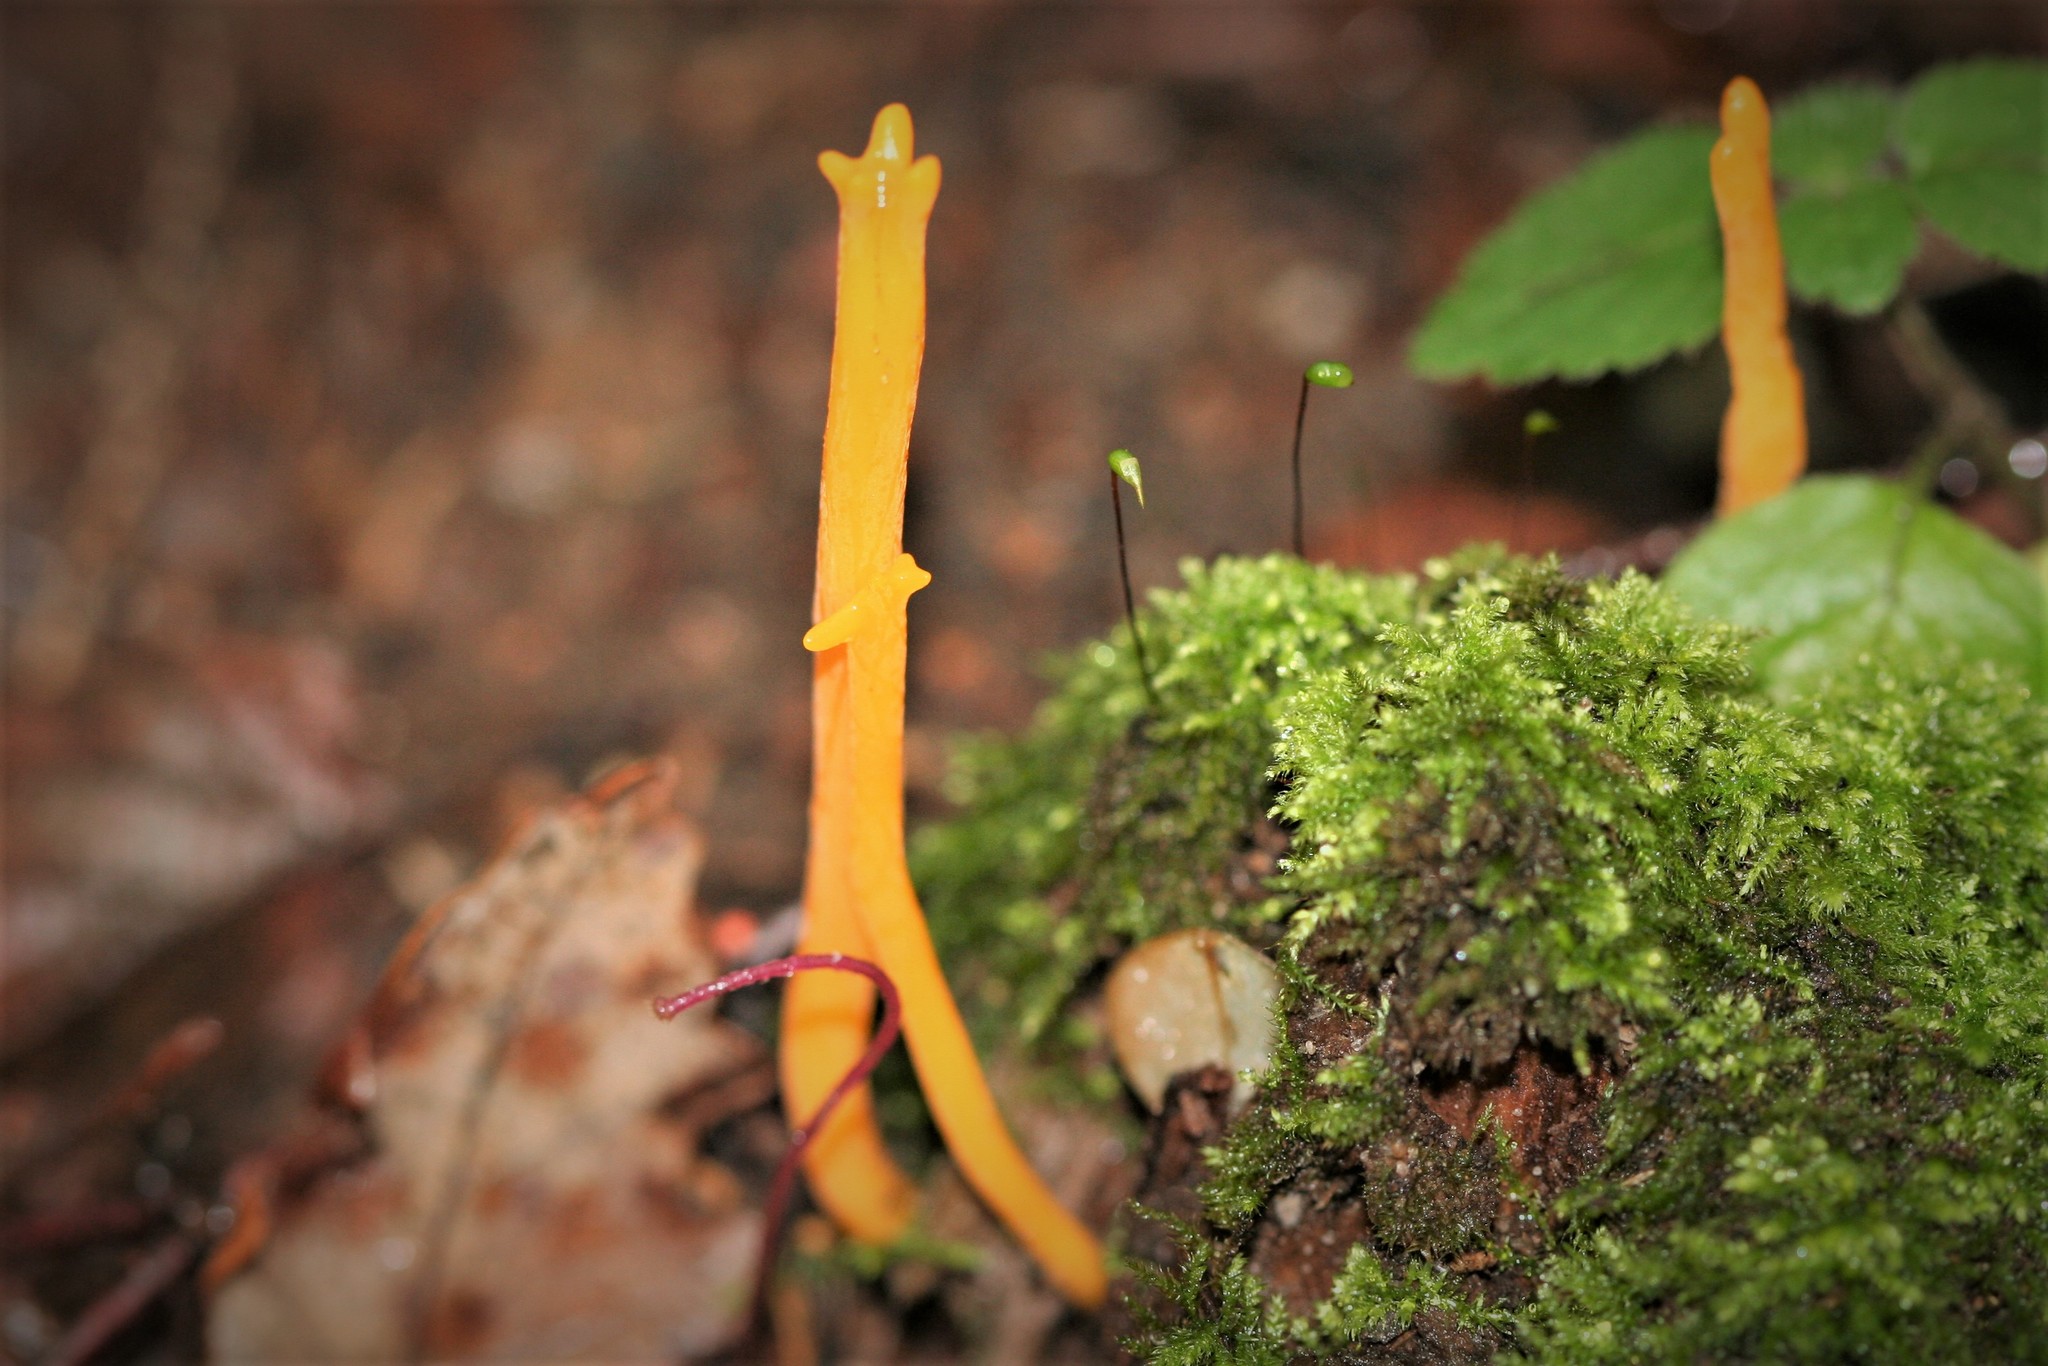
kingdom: Fungi
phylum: Basidiomycota
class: Dacrymycetes
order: Dacrymycetales
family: Dacrymycetaceae
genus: Calocera
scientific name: Calocera viscosa
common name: Yellow stagshorn
